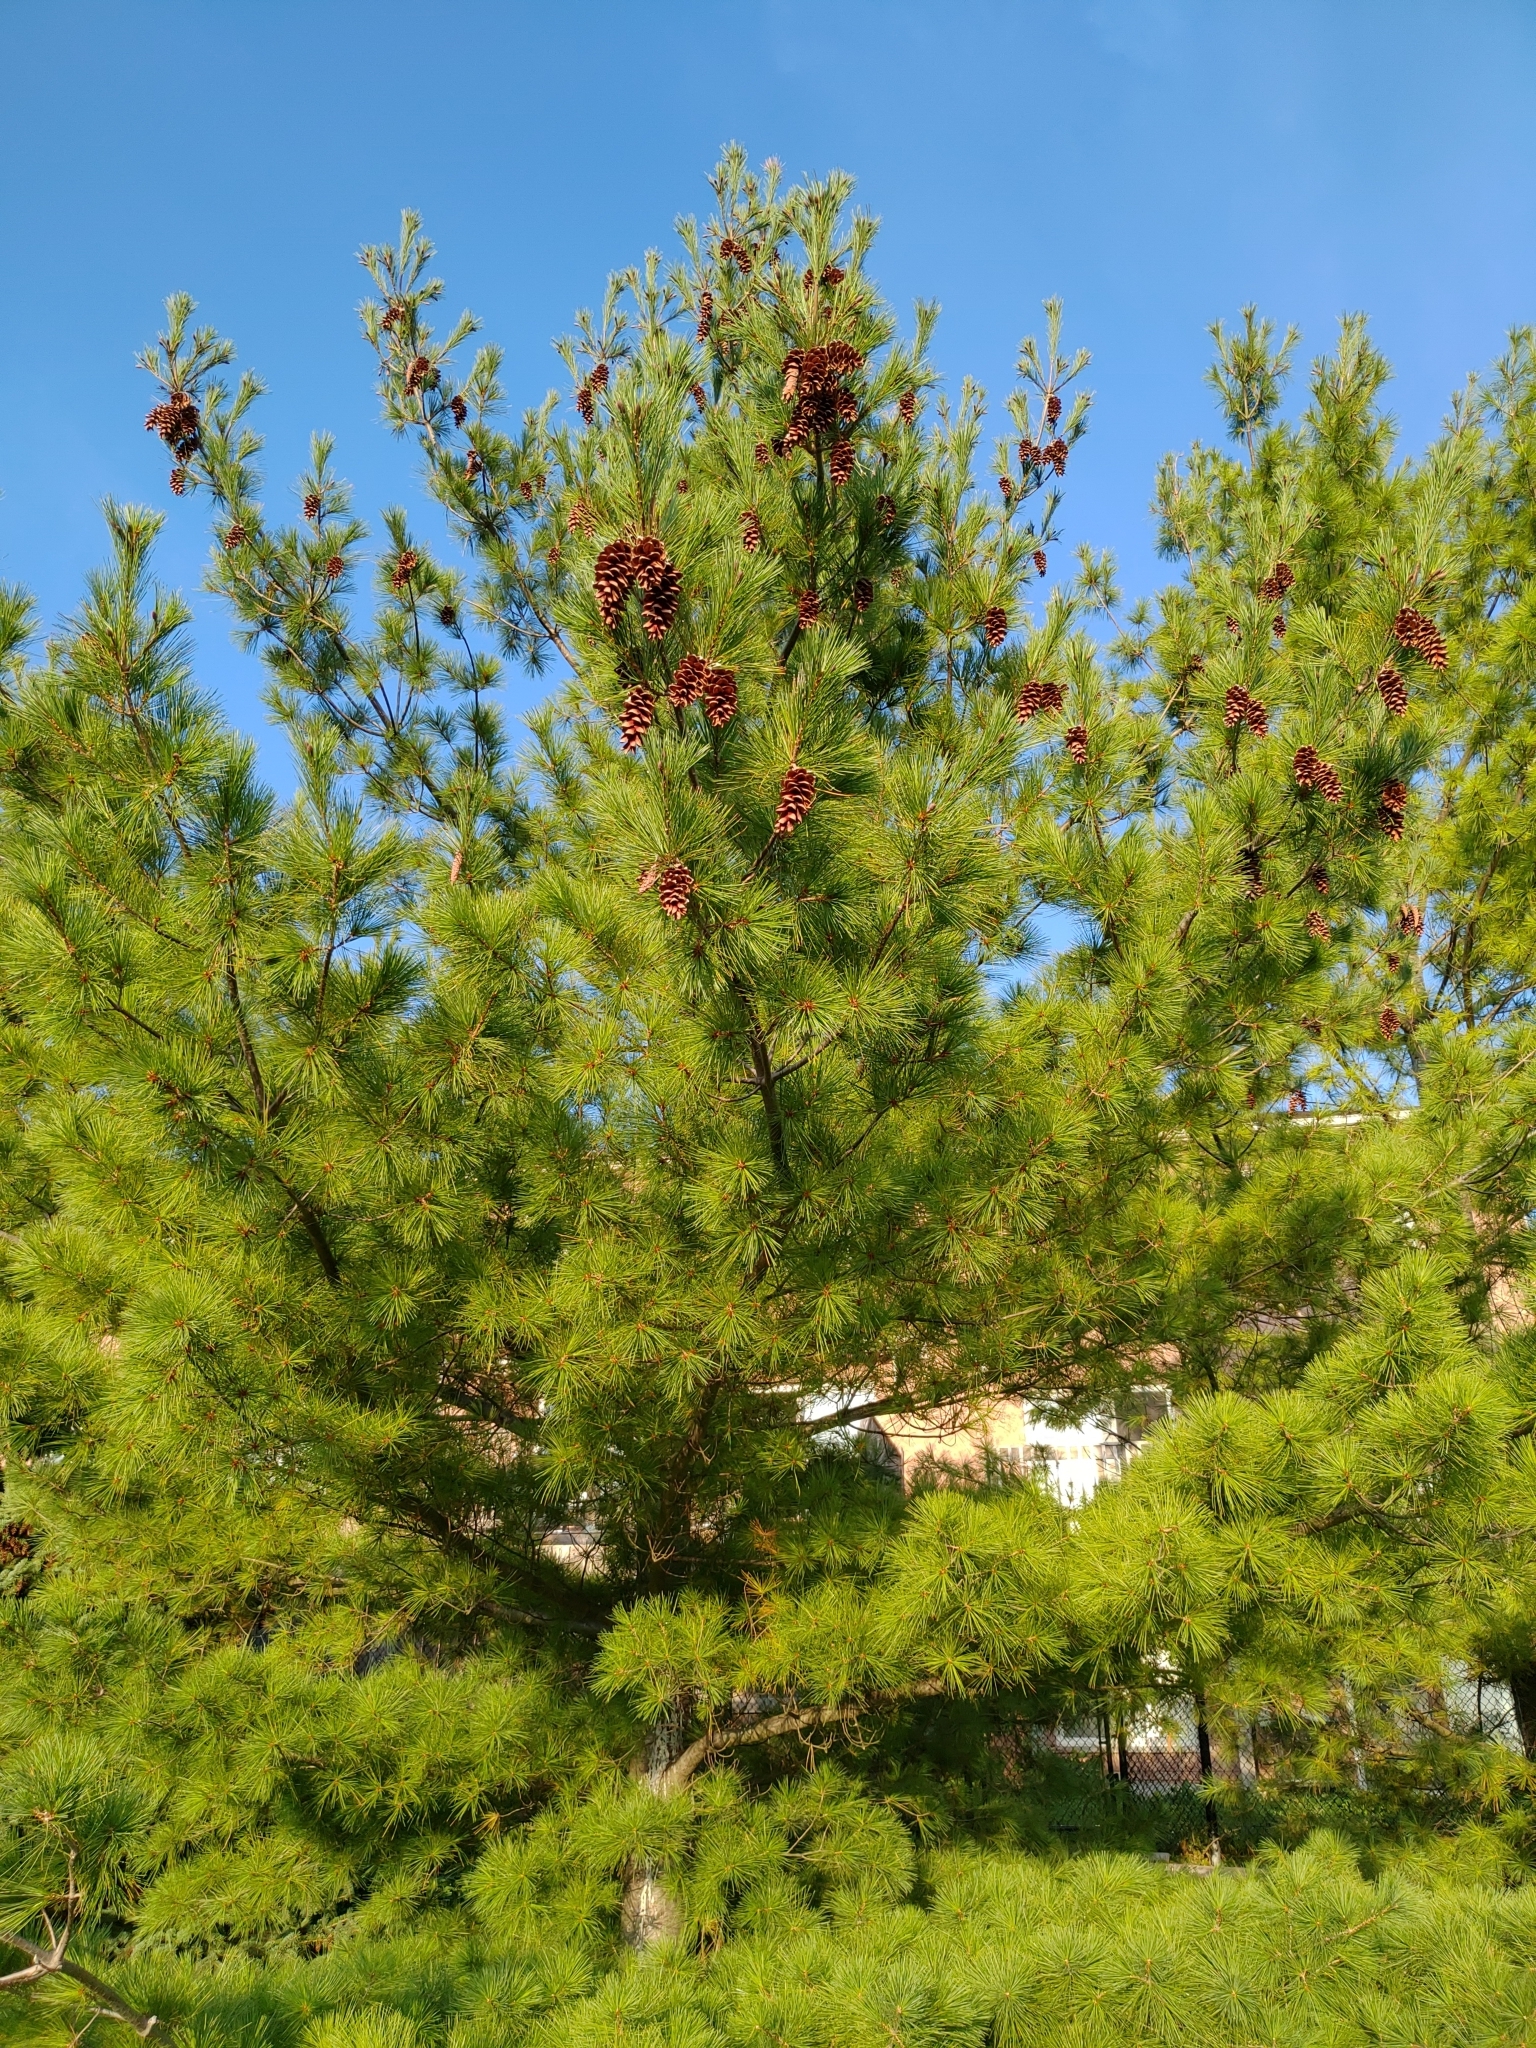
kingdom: Plantae
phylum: Tracheophyta
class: Pinopsida
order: Pinales
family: Pinaceae
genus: Pinus
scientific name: Pinus strobus
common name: Weymouth pine
